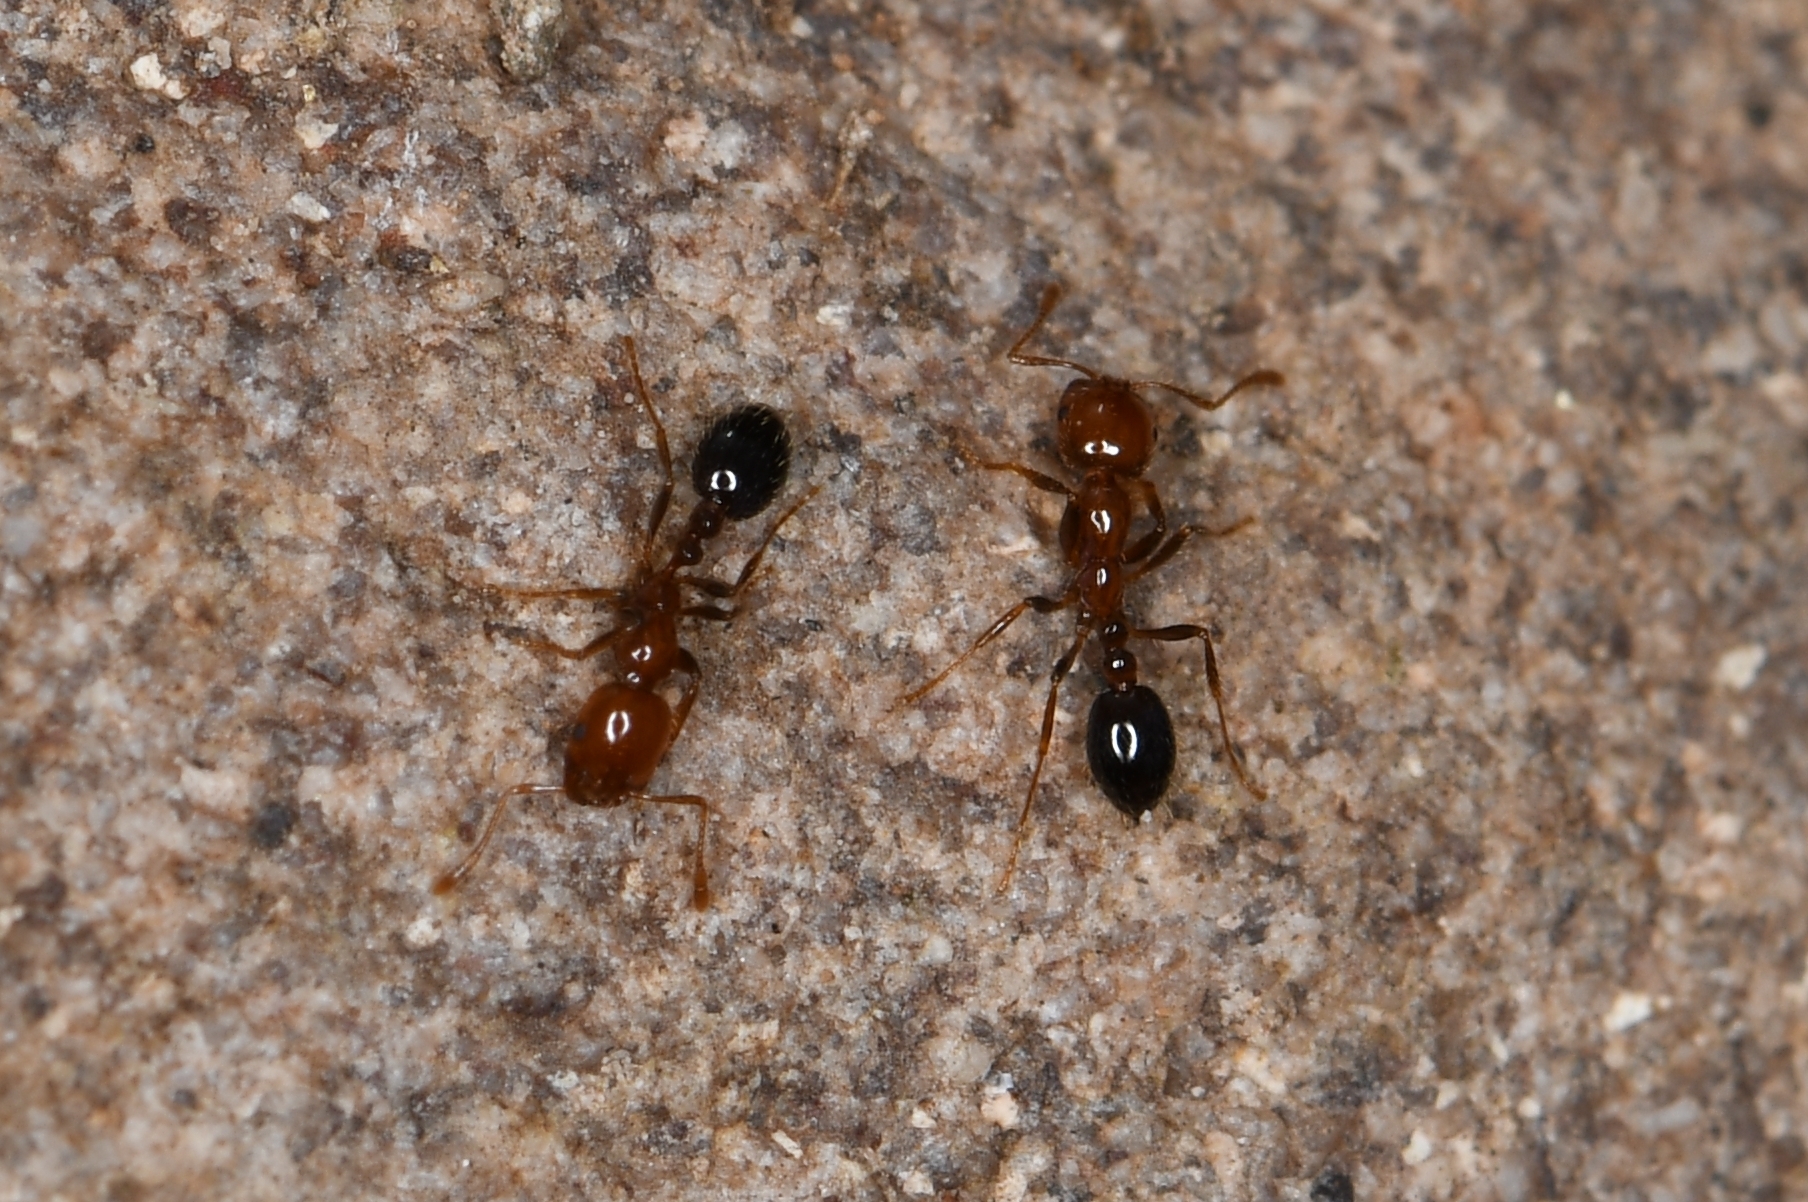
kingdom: Animalia
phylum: Arthropoda
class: Insecta
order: Hymenoptera
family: Formicidae
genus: Solenopsis
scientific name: Solenopsis xyloni
